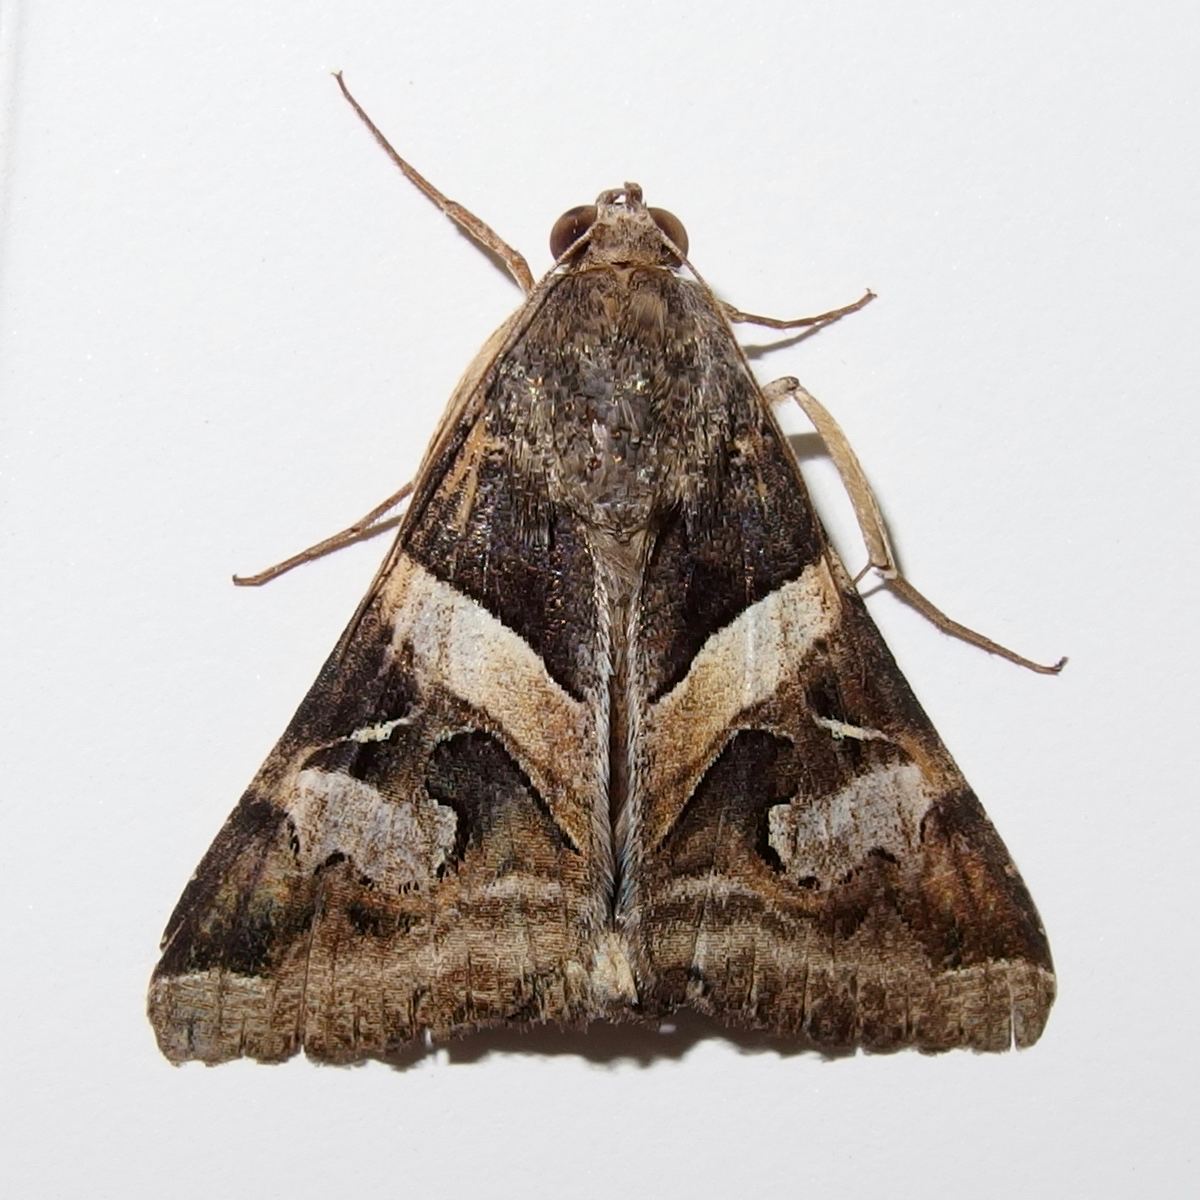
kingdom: Animalia
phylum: Arthropoda
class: Insecta
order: Lepidoptera
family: Erebidae
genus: Melipotis
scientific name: Melipotis indomita
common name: Moth
